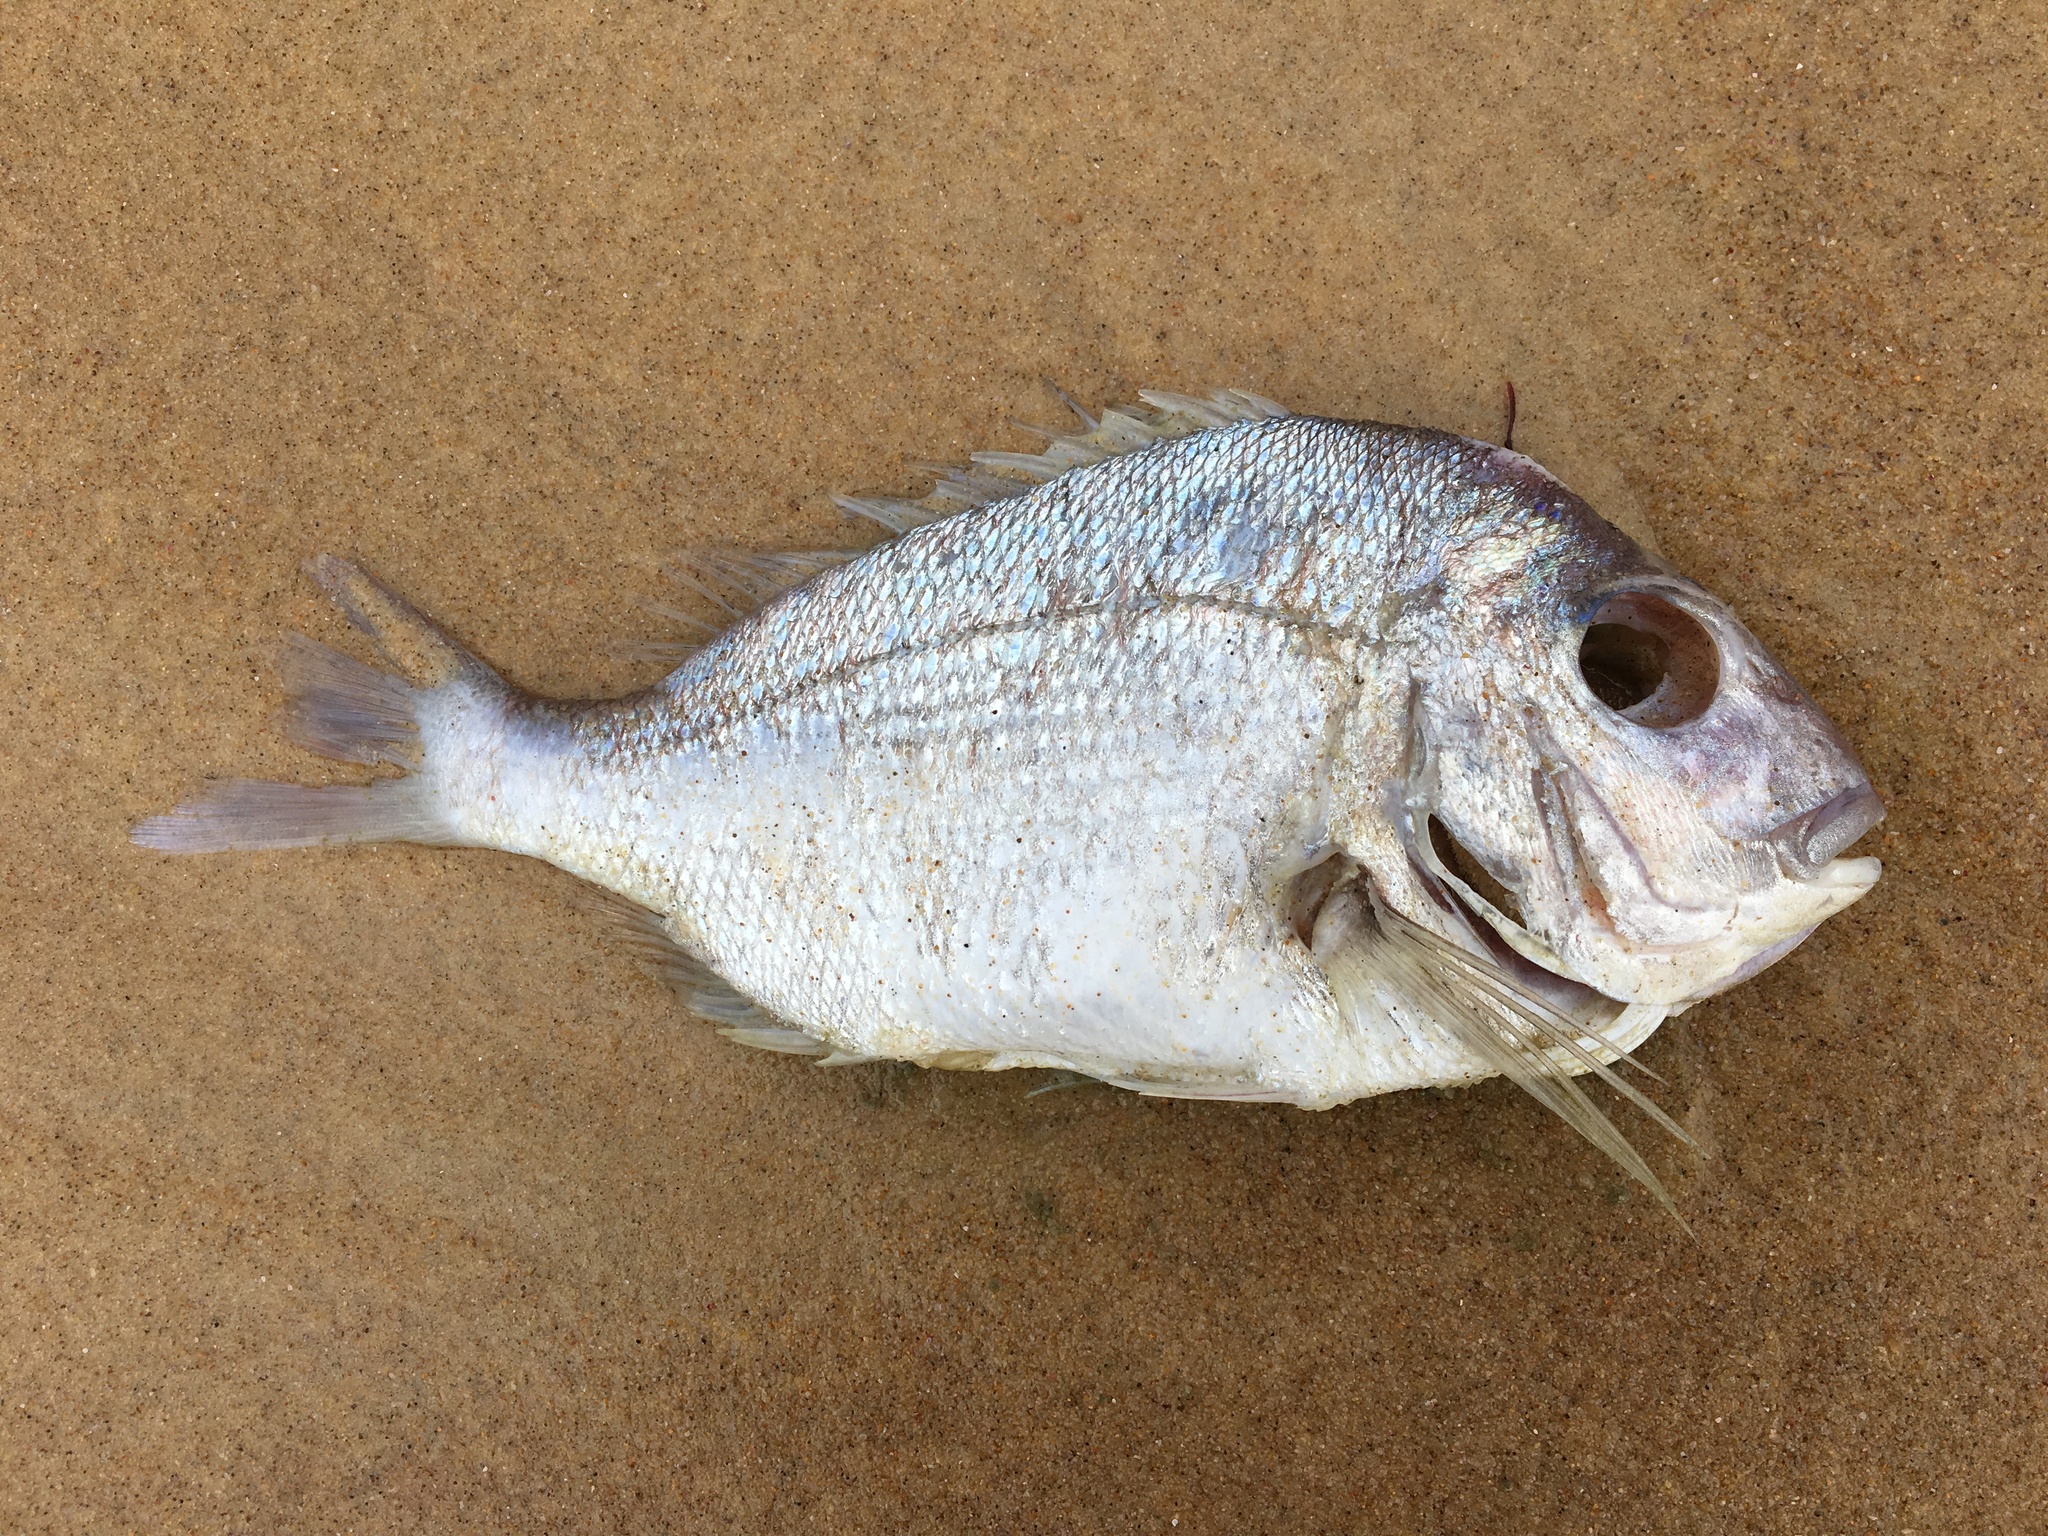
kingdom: Animalia
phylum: Chordata
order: Perciformes
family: Sparidae
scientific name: Sparidae
